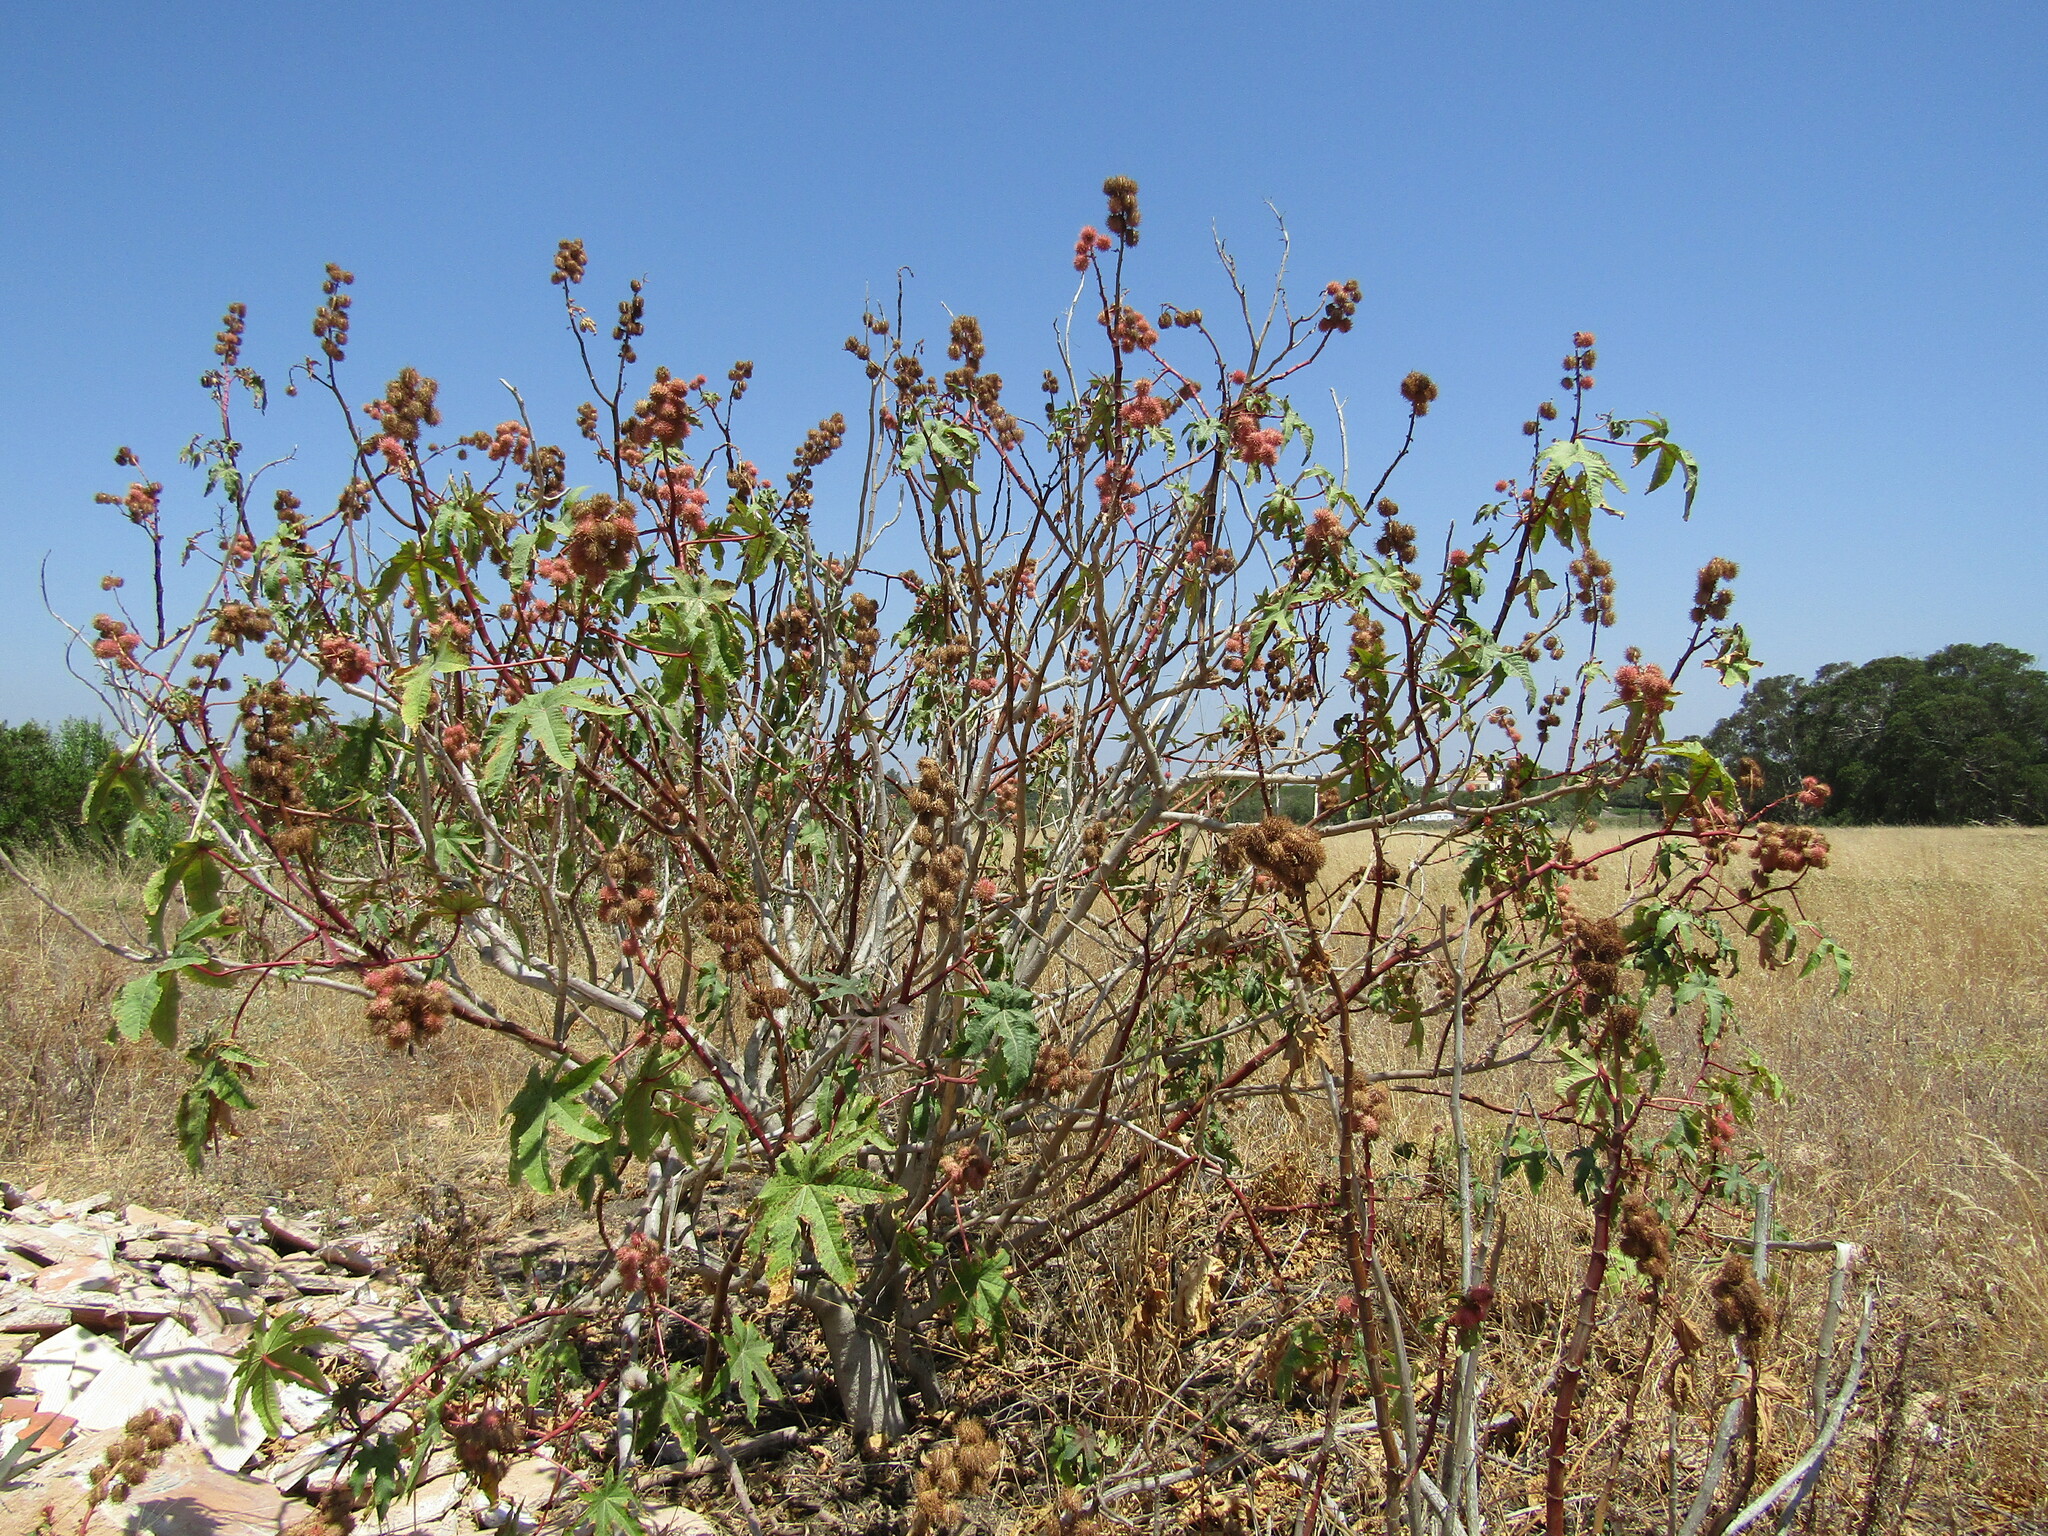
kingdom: Plantae
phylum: Tracheophyta
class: Magnoliopsida
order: Malpighiales
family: Euphorbiaceae
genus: Ricinus
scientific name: Ricinus communis
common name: Castor-oil-plant
